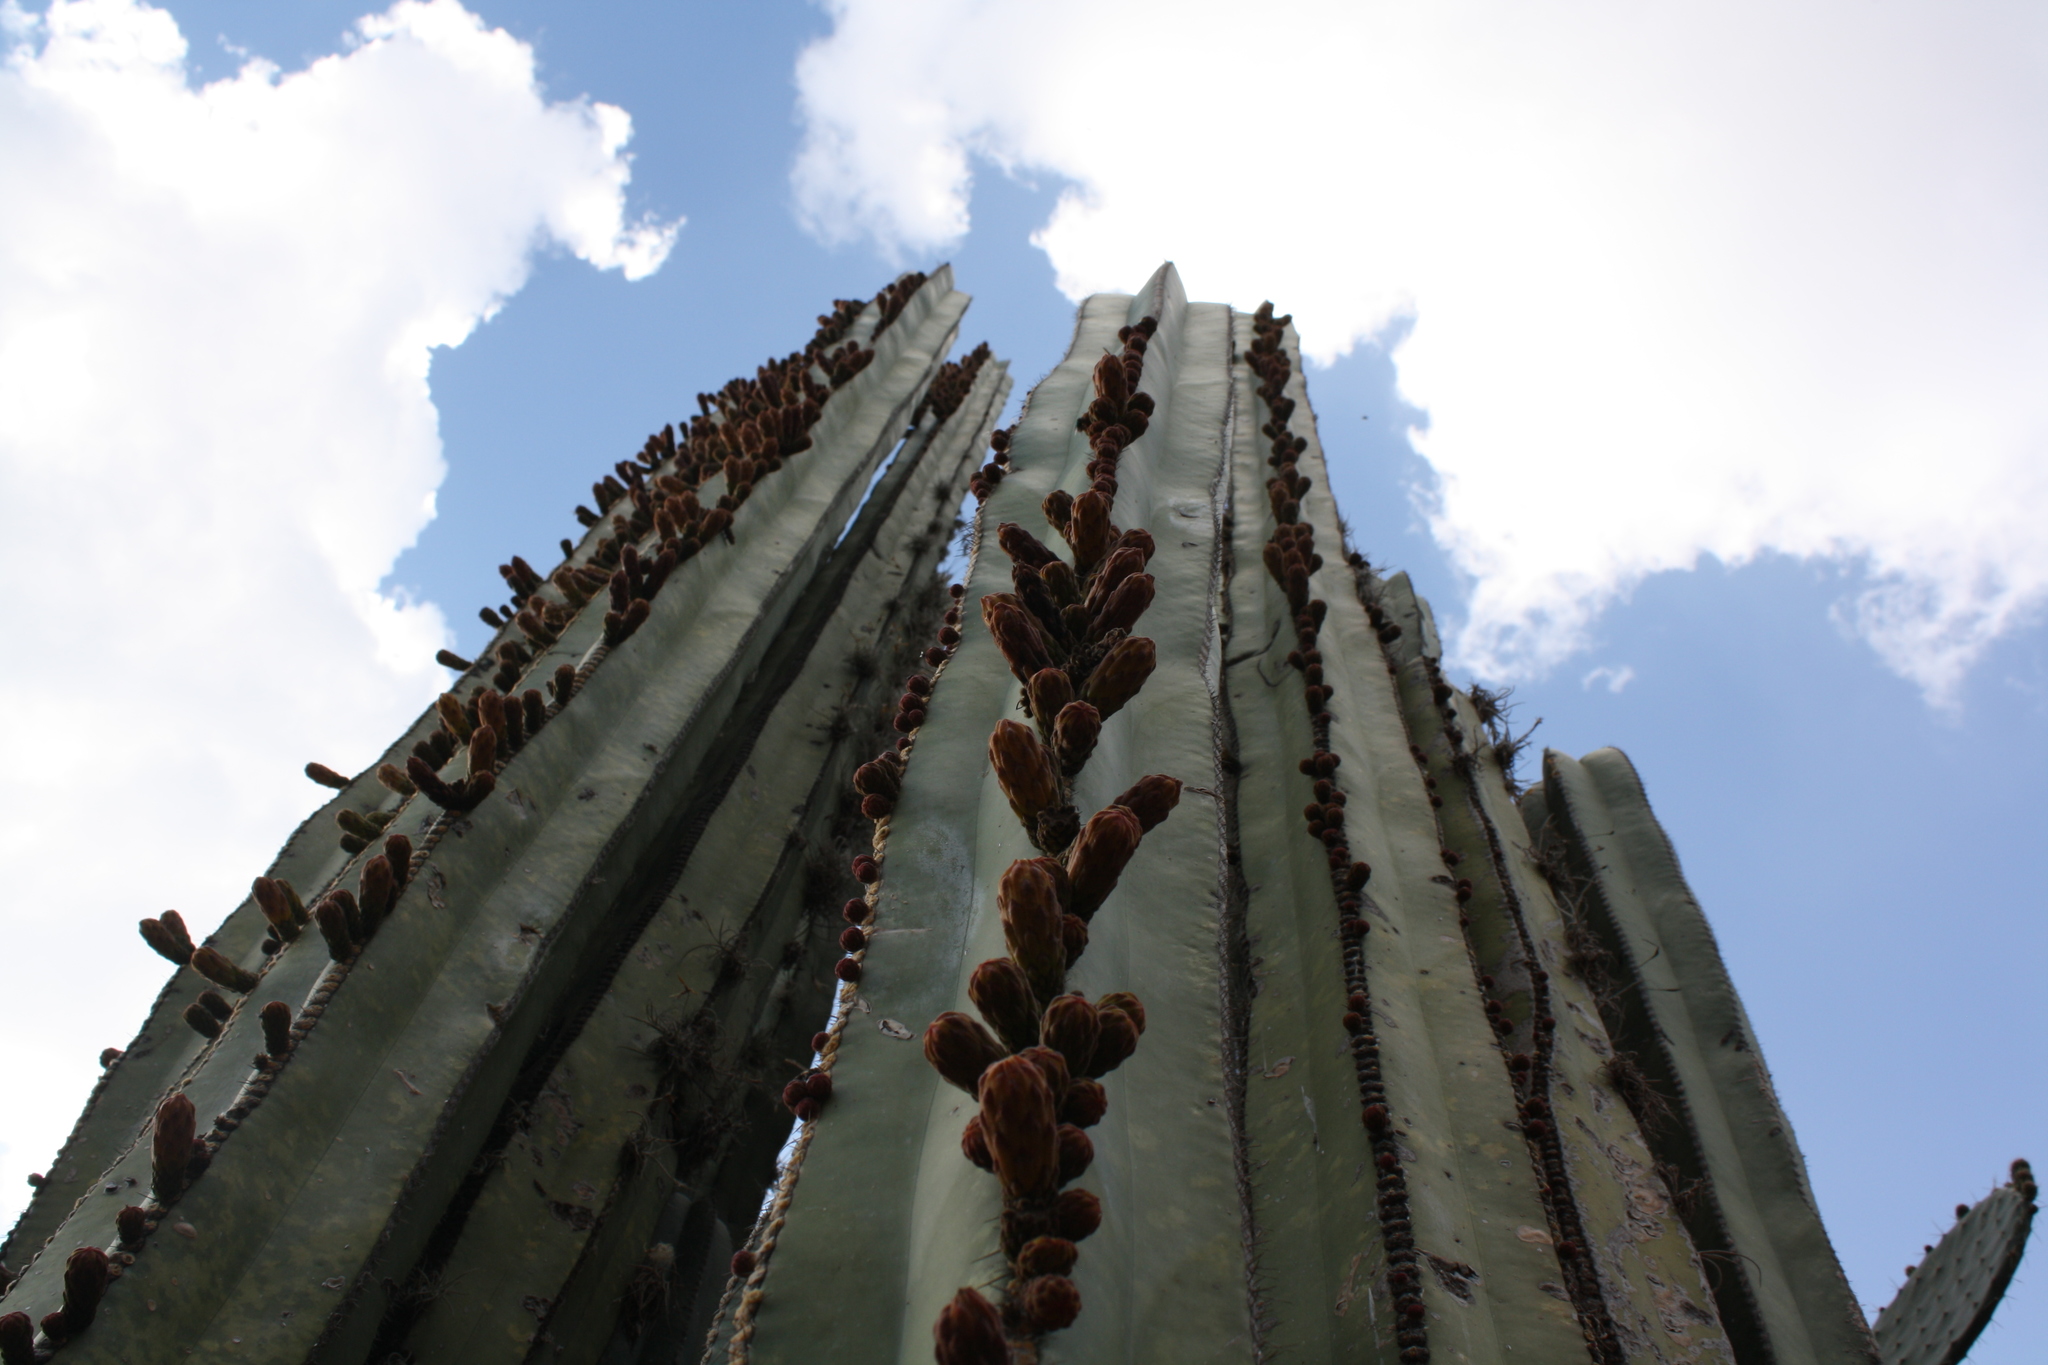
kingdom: Plantae
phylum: Tracheophyta
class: Magnoliopsida
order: Caryophyllales
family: Cactaceae
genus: Marginatocereus
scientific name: Marginatocereus marginatus
